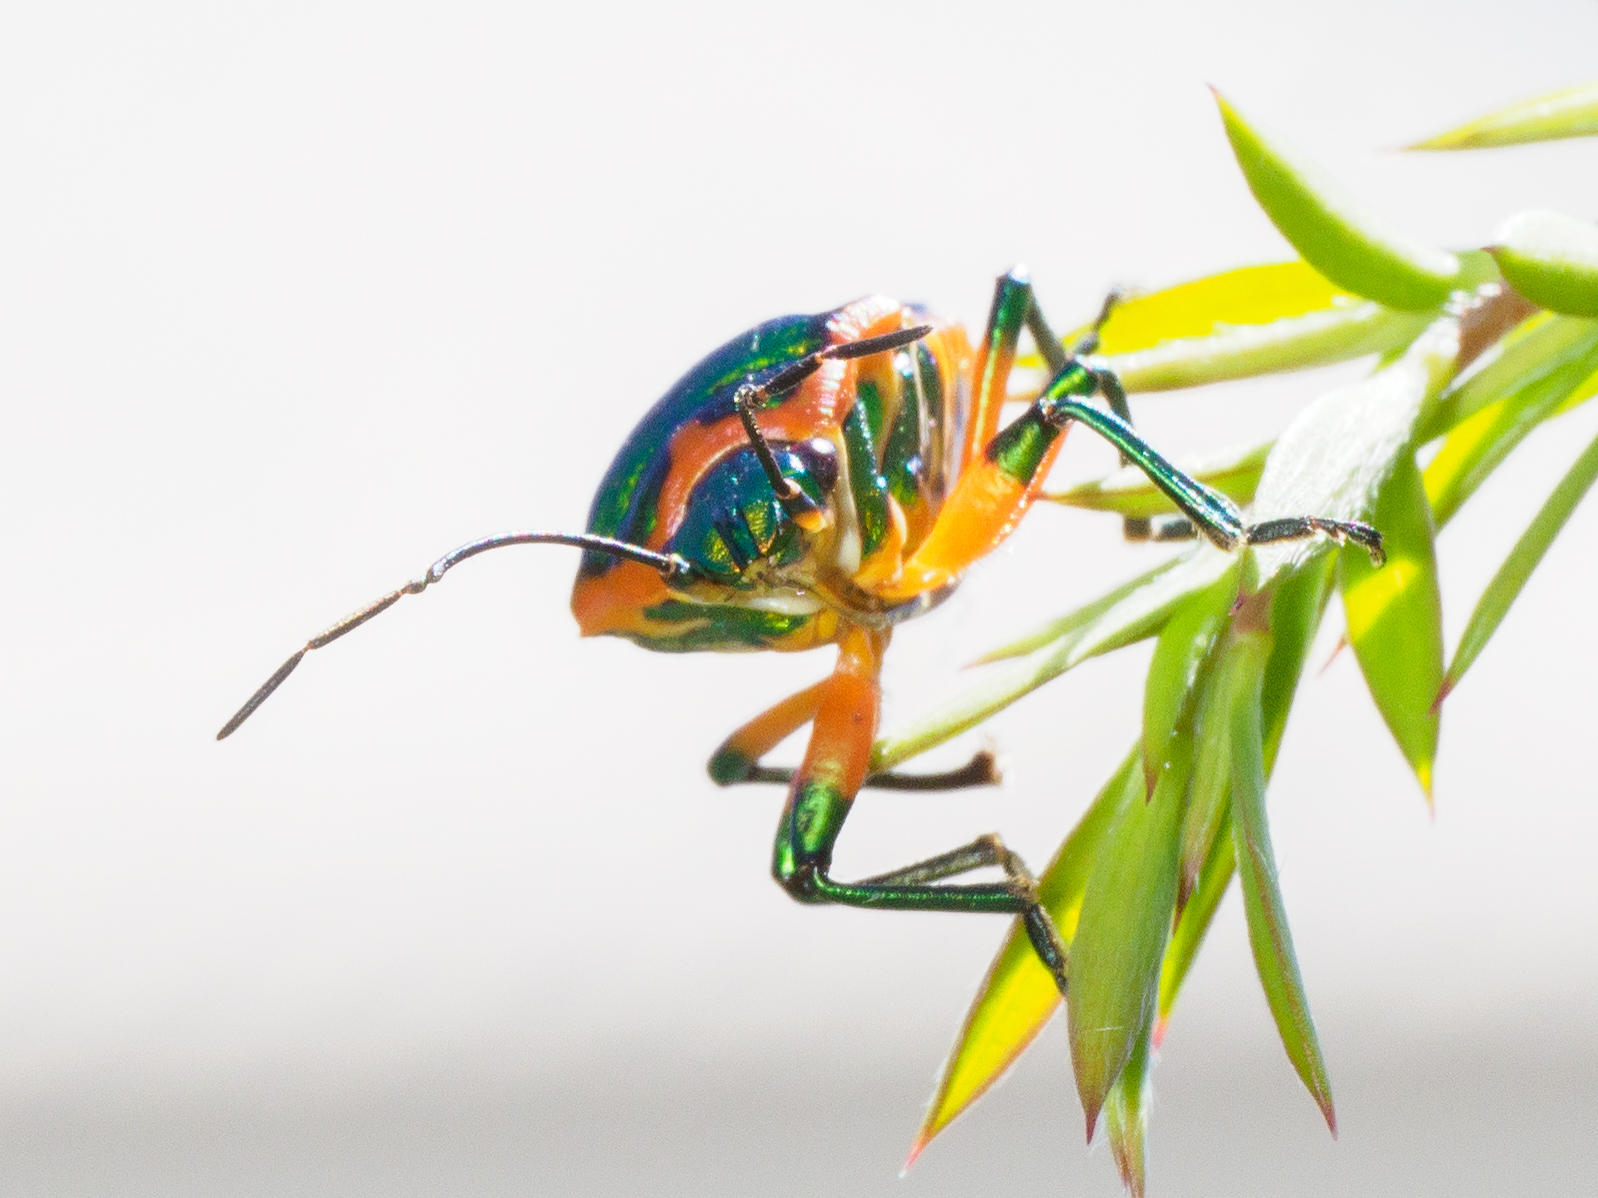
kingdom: Animalia
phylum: Arthropoda
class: Insecta
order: Hemiptera
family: Scutelleridae
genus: Scutiphora
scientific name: Scutiphora pedicellata
